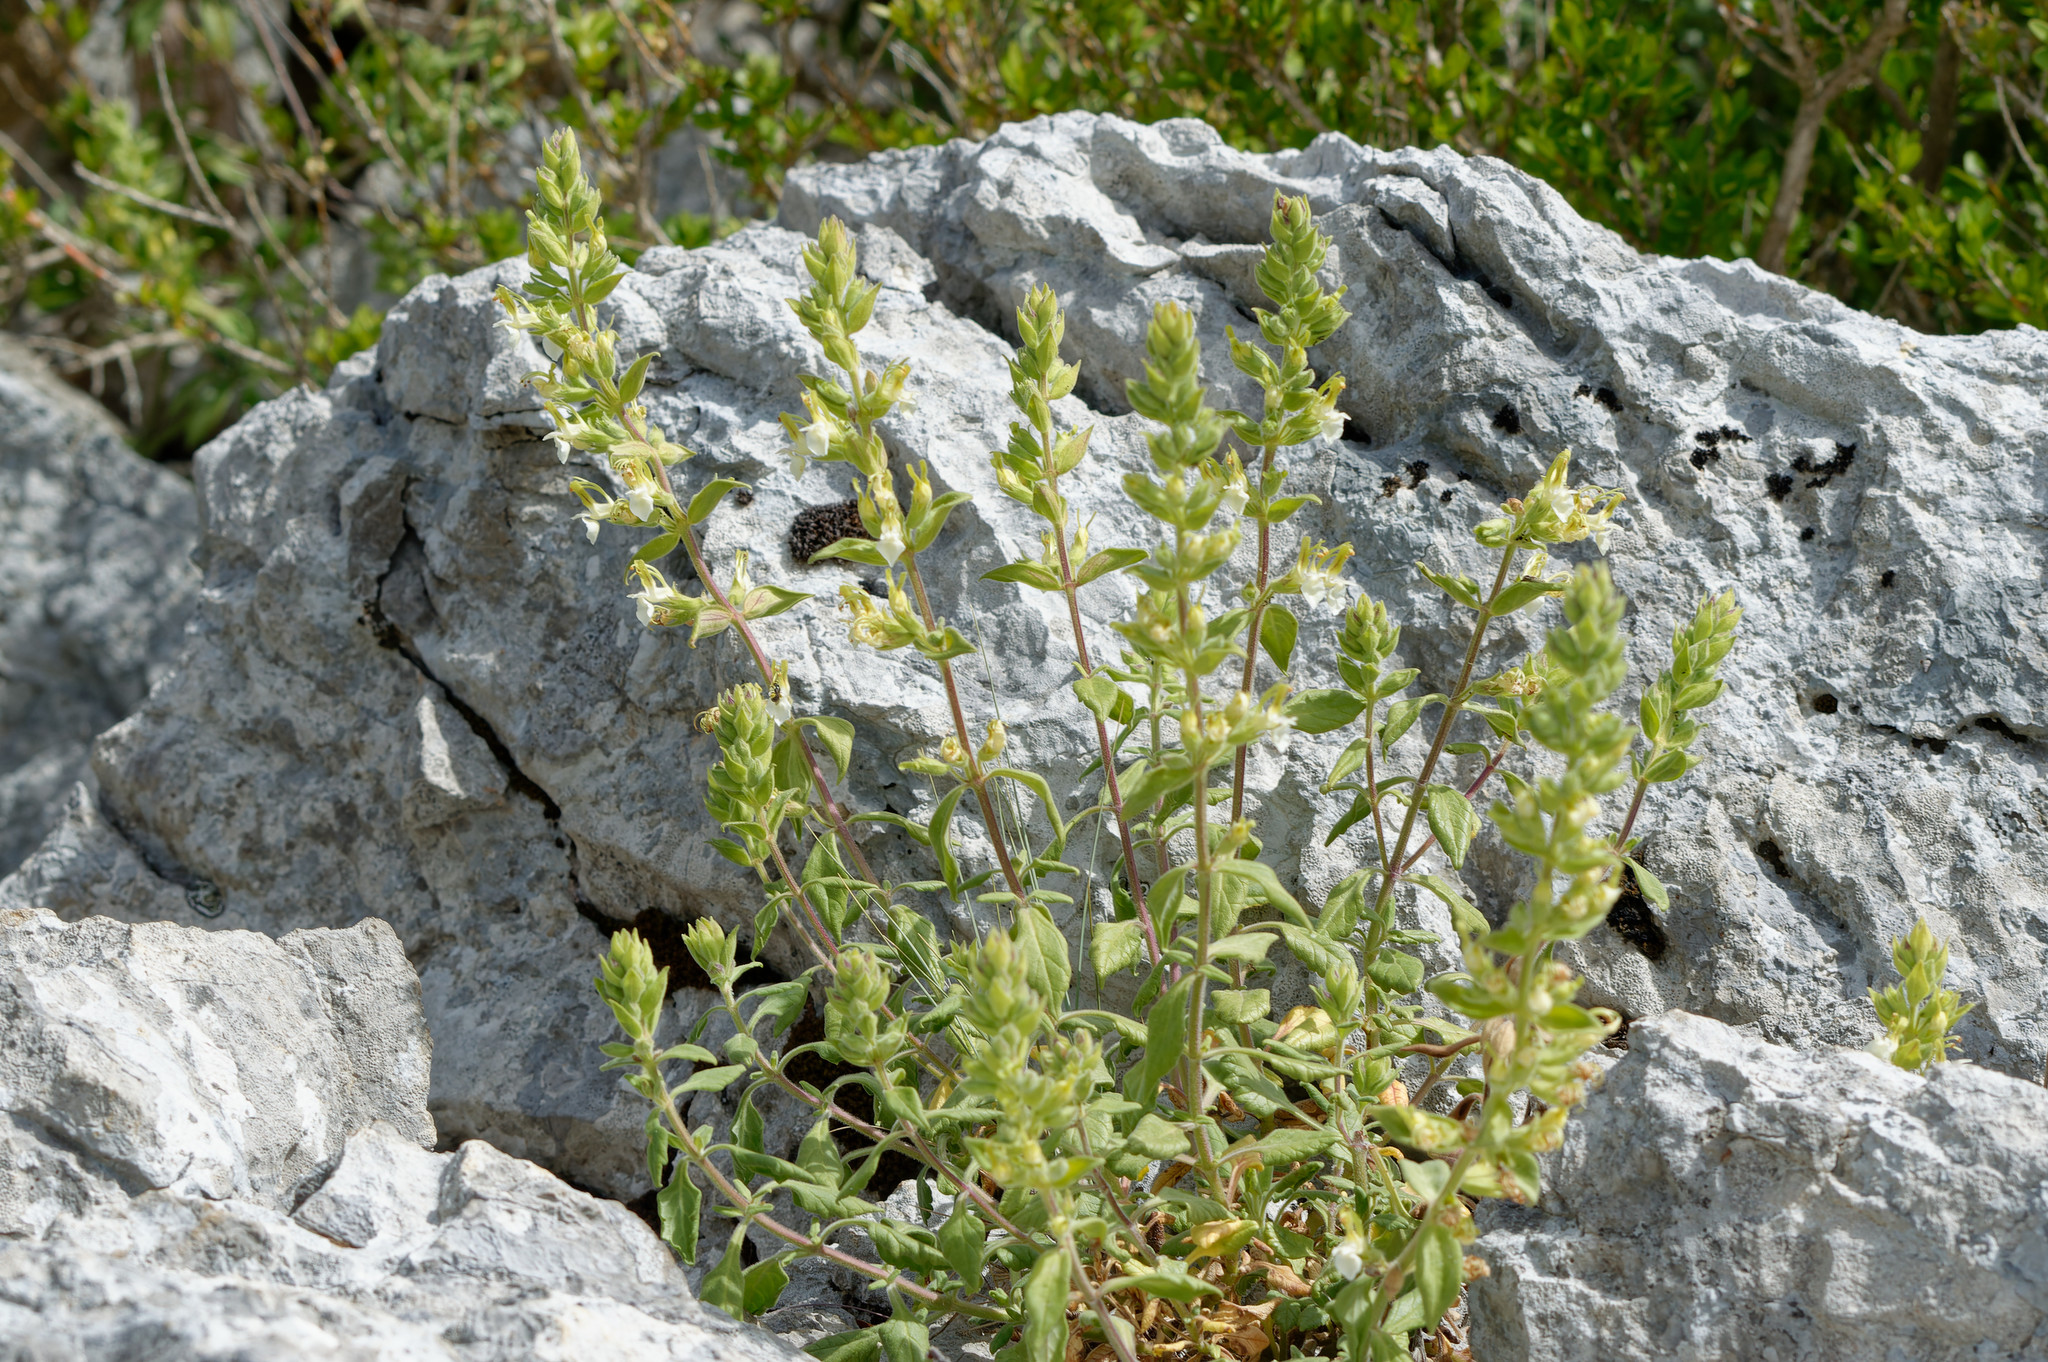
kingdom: Plantae
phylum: Tracheophyta
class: Magnoliopsida
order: Lamiales
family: Lamiaceae
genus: Teucrium
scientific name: Teucrium flavum
